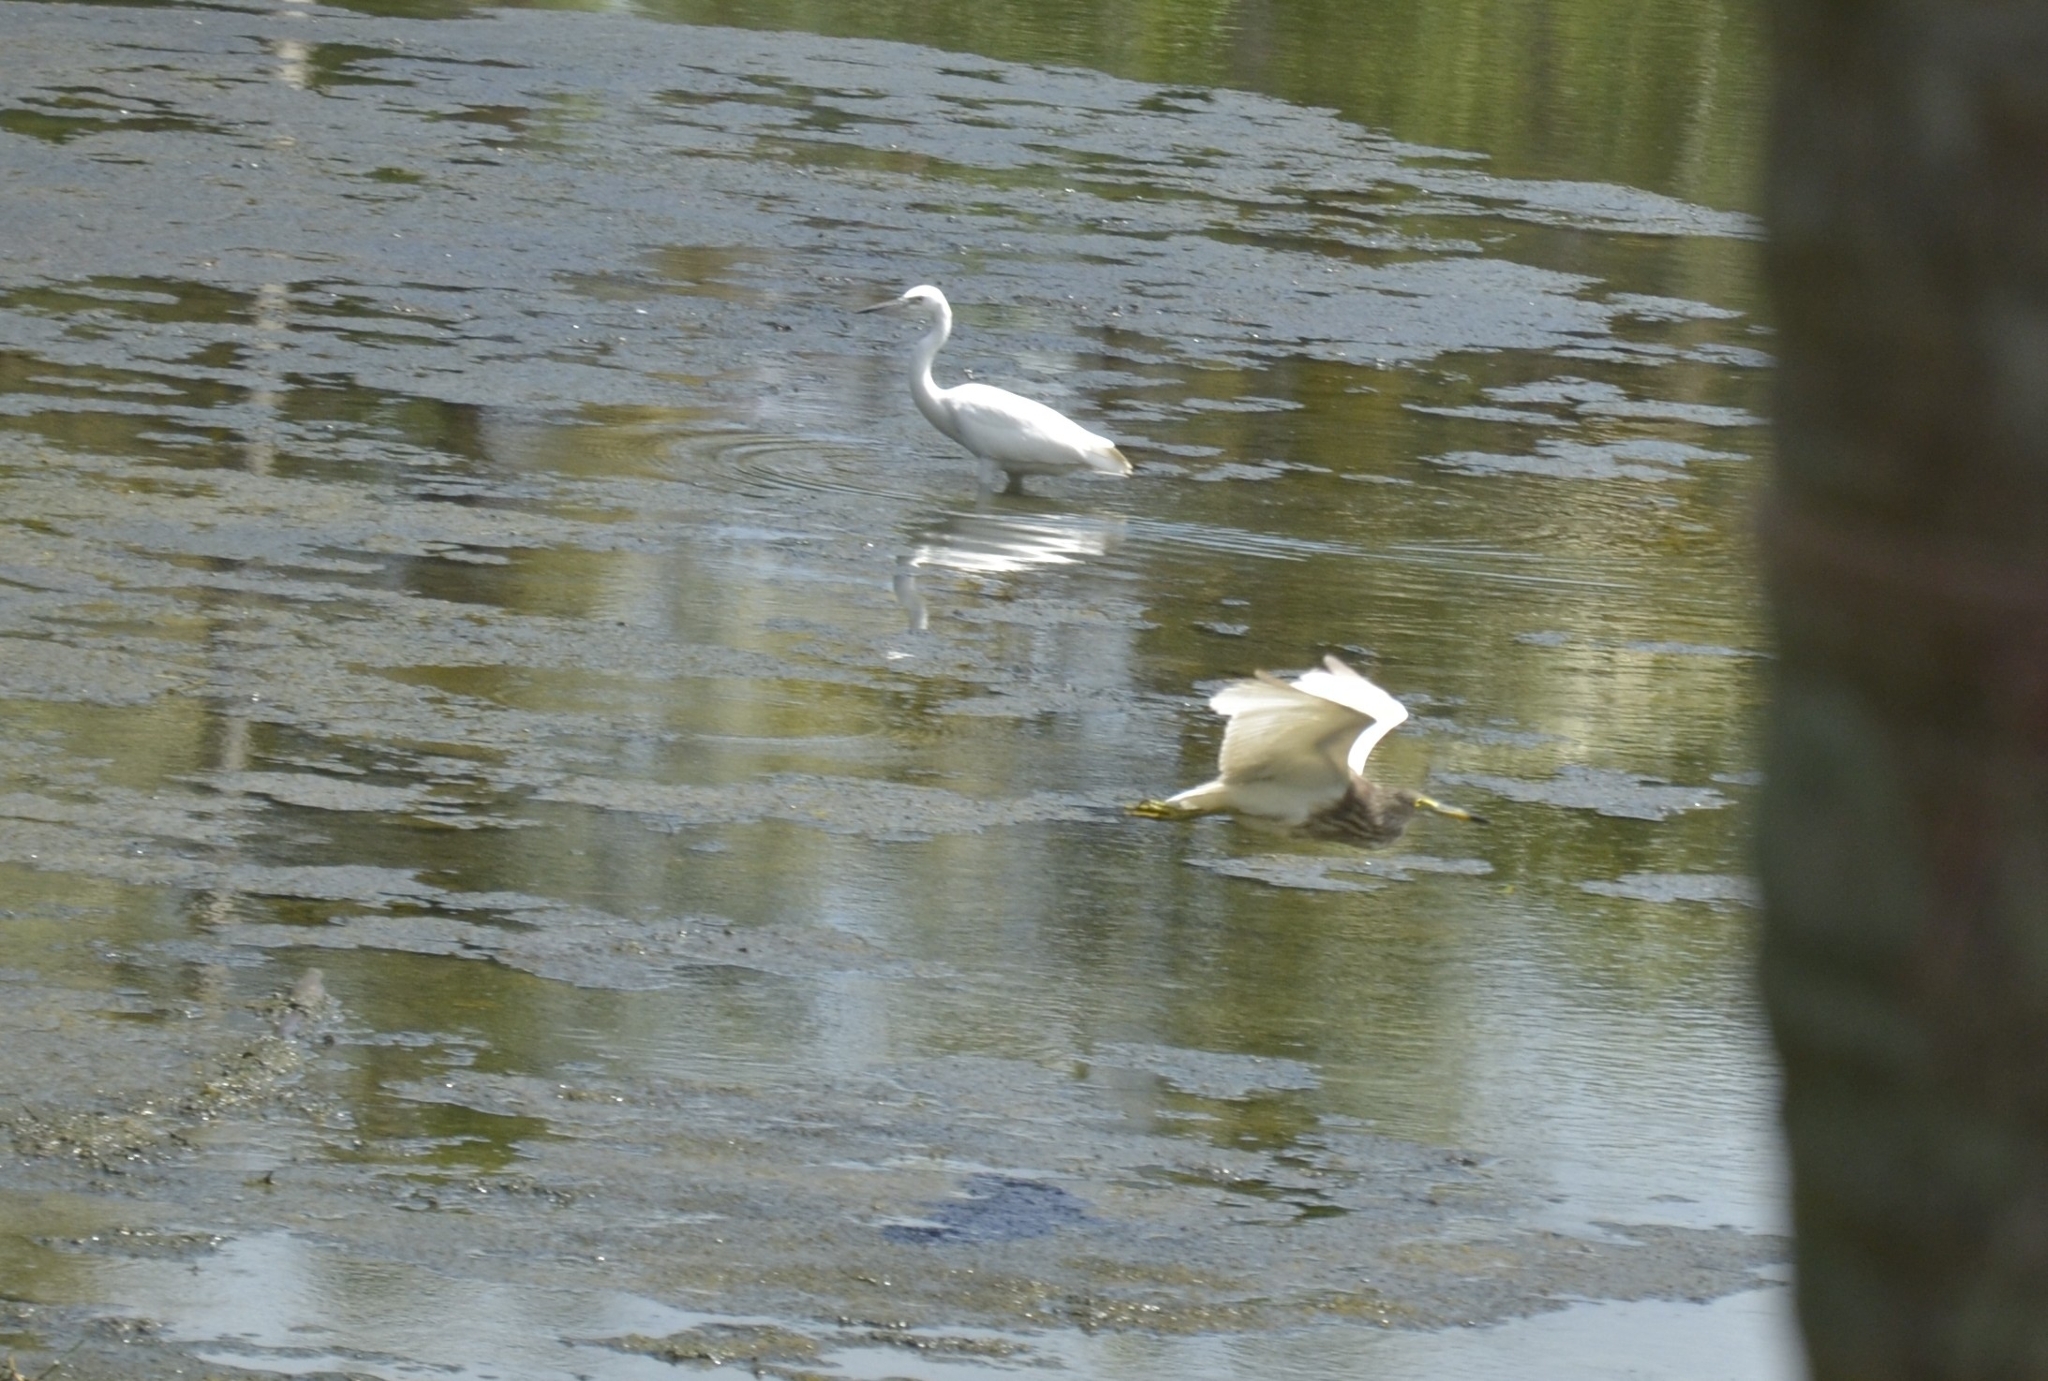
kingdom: Animalia
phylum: Chordata
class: Aves
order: Pelecaniformes
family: Ardeidae
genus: Egretta
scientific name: Egretta garzetta
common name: Little egret
